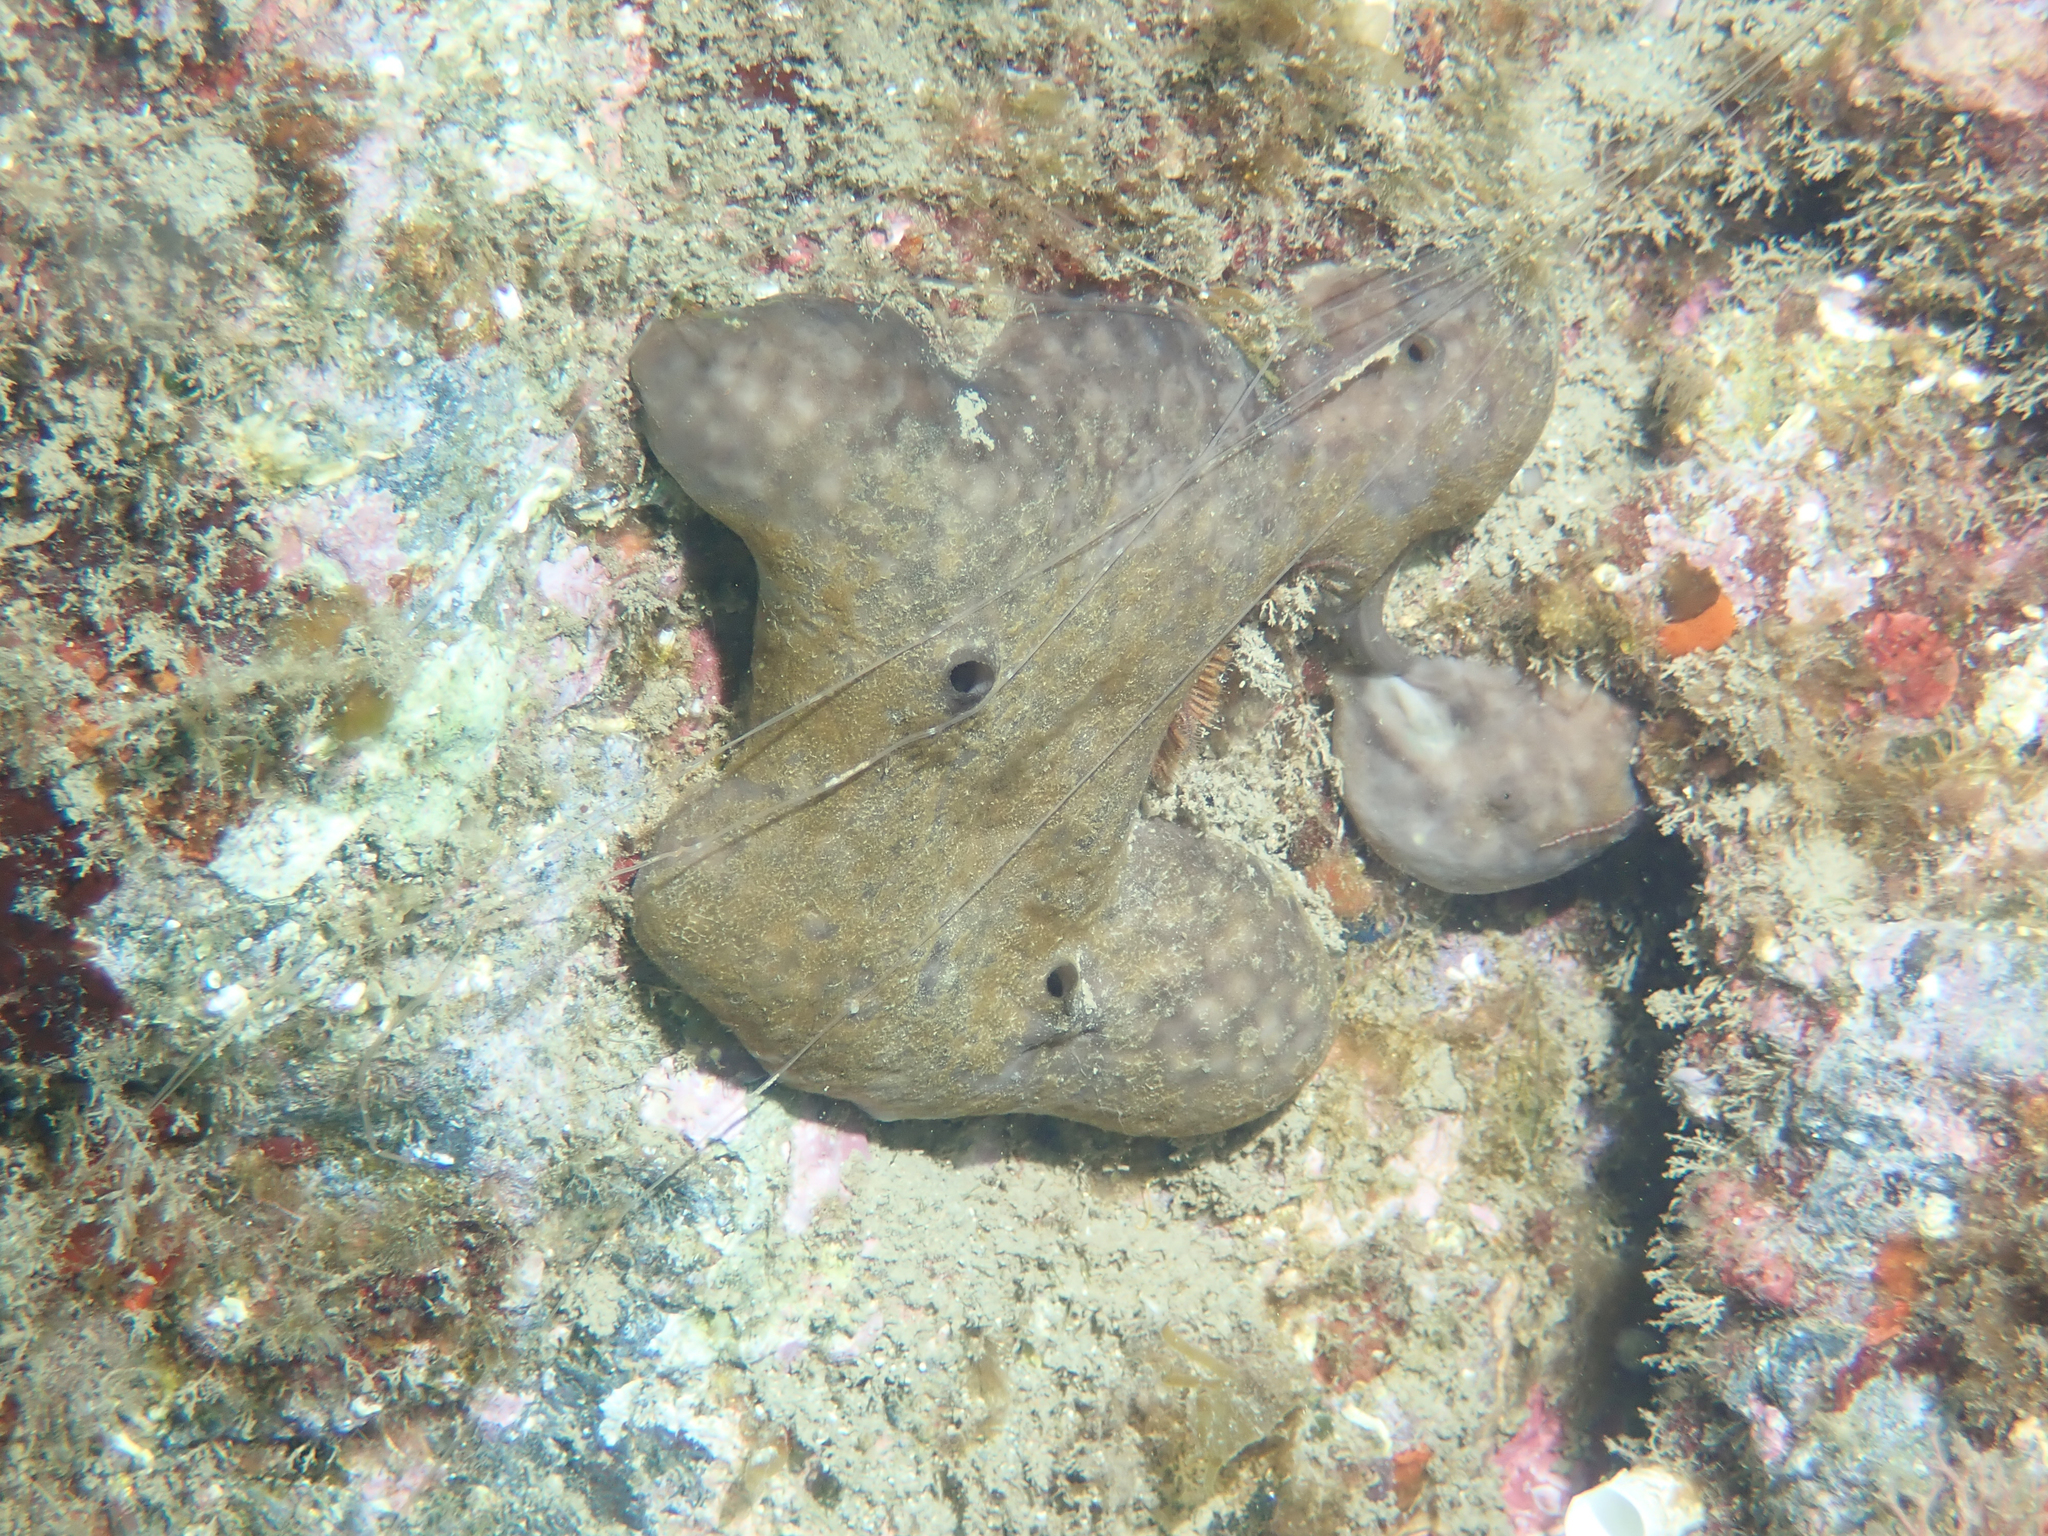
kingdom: Animalia
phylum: Porifera
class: Demospongiae
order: Chondrosiida
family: Chondrosiidae
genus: Chondrosia
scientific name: Chondrosia reniformis
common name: Chicken liver sponge
